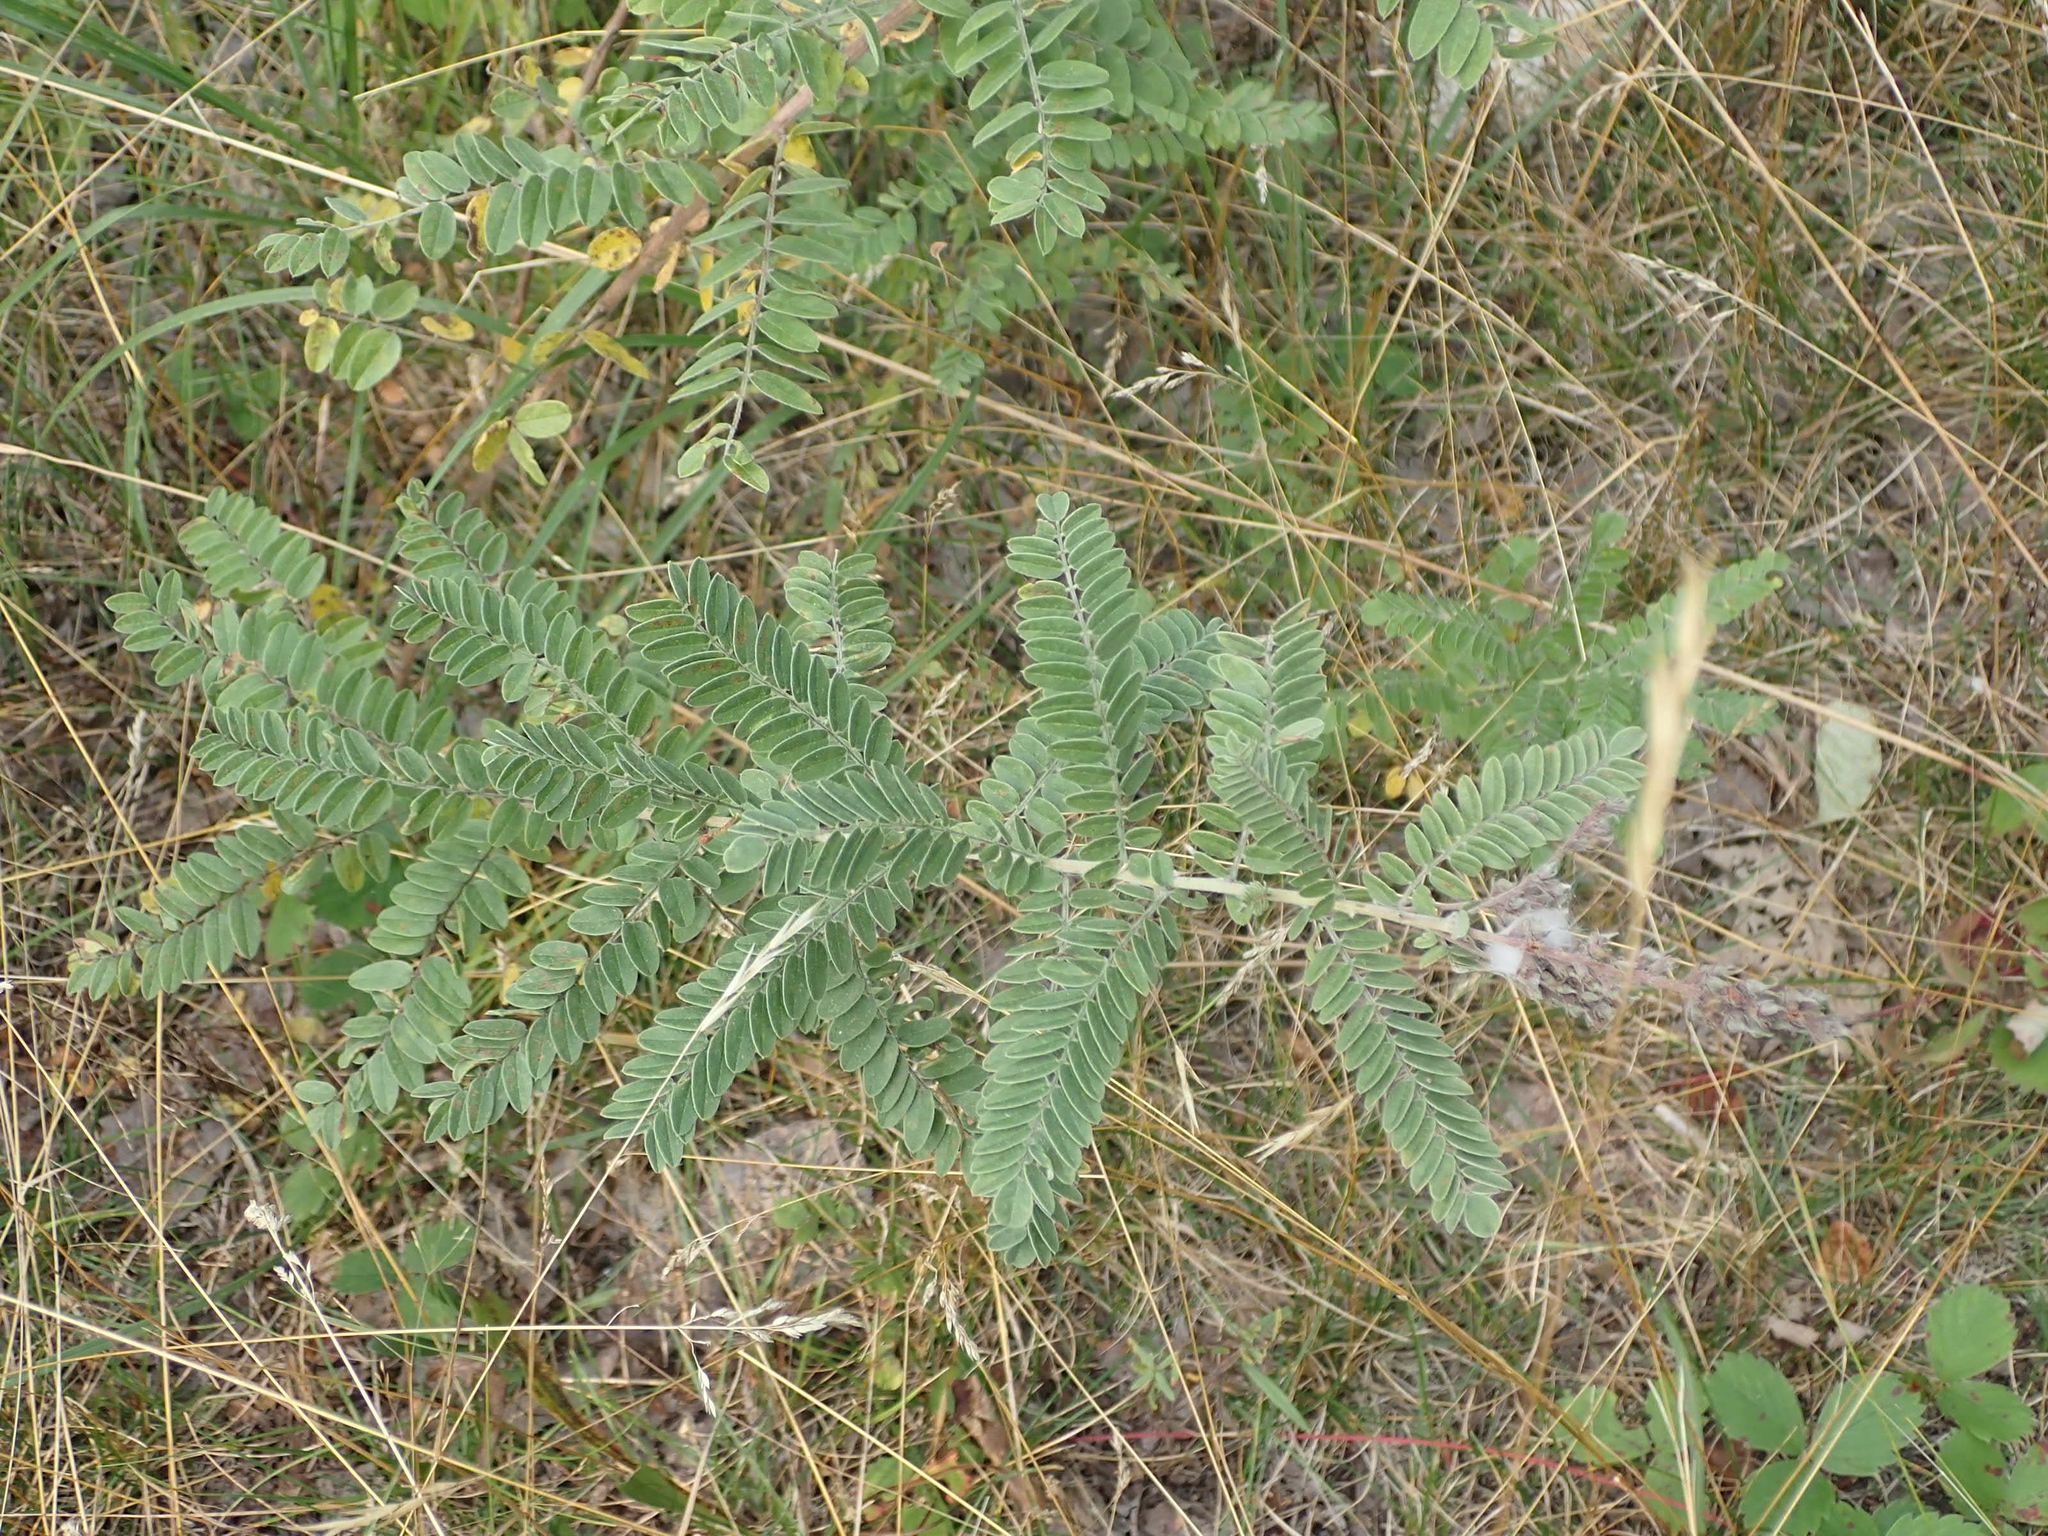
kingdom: Plantae
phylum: Tracheophyta
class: Magnoliopsida
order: Fabales
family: Fabaceae
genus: Amorpha
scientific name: Amorpha canescens
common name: Leadplant
